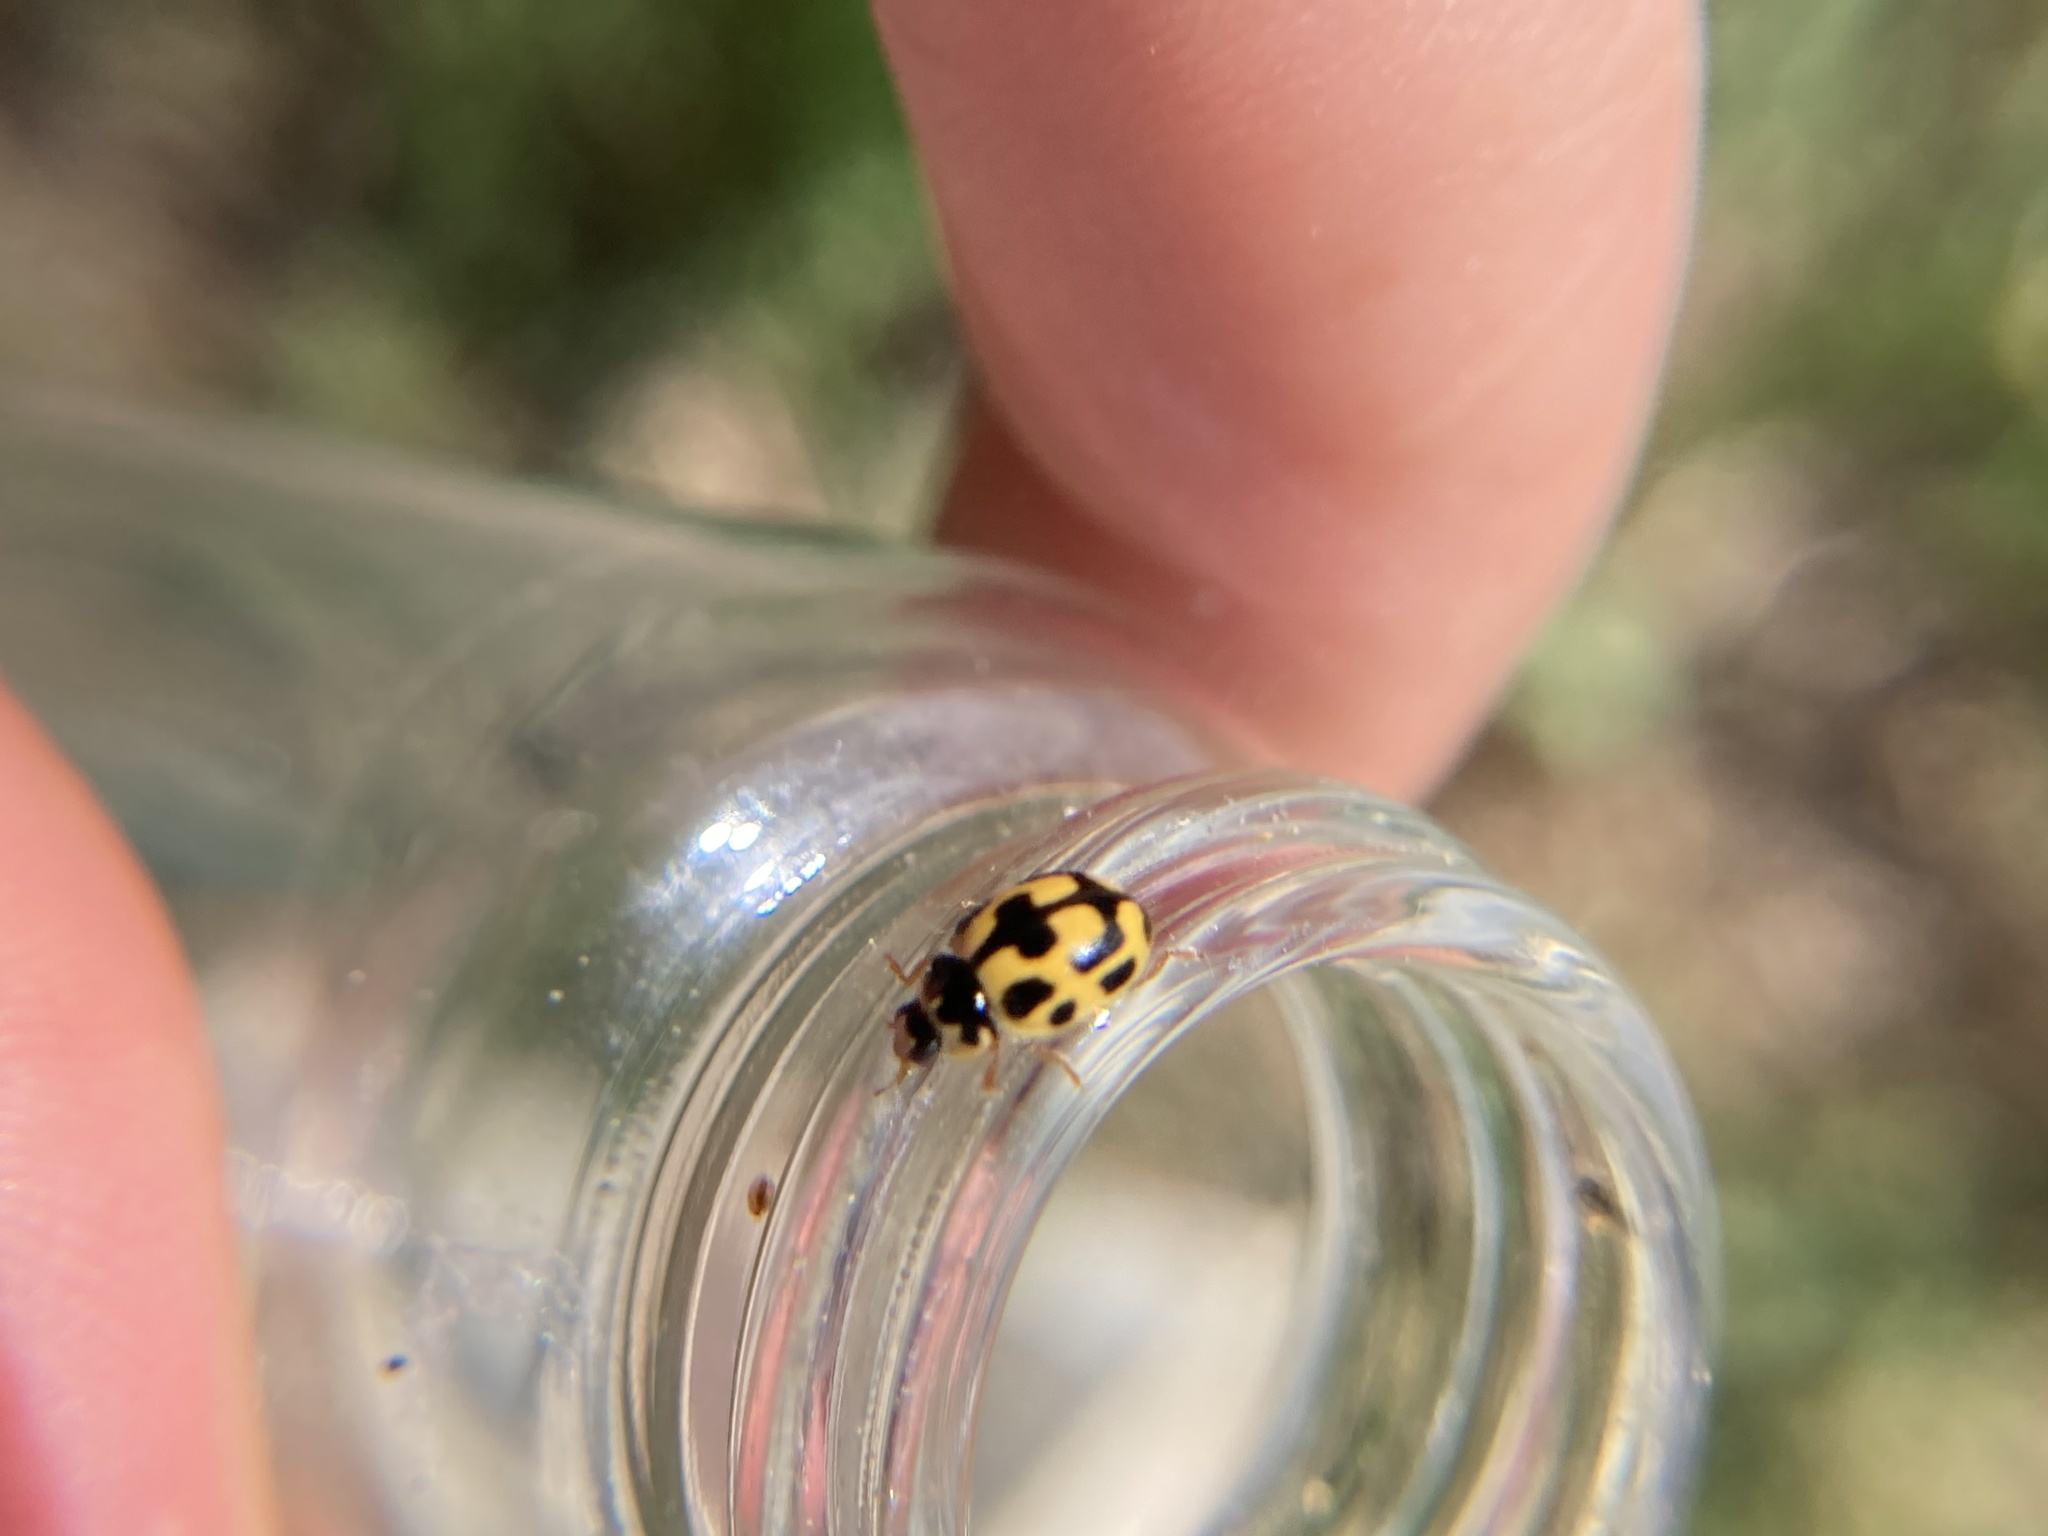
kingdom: Animalia
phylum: Arthropoda
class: Insecta
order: Coleoptera
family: Coccinellidae
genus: Propylaea
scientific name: Propylaea quatuordecimpunctata
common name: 14-spotted ladybird beetle
